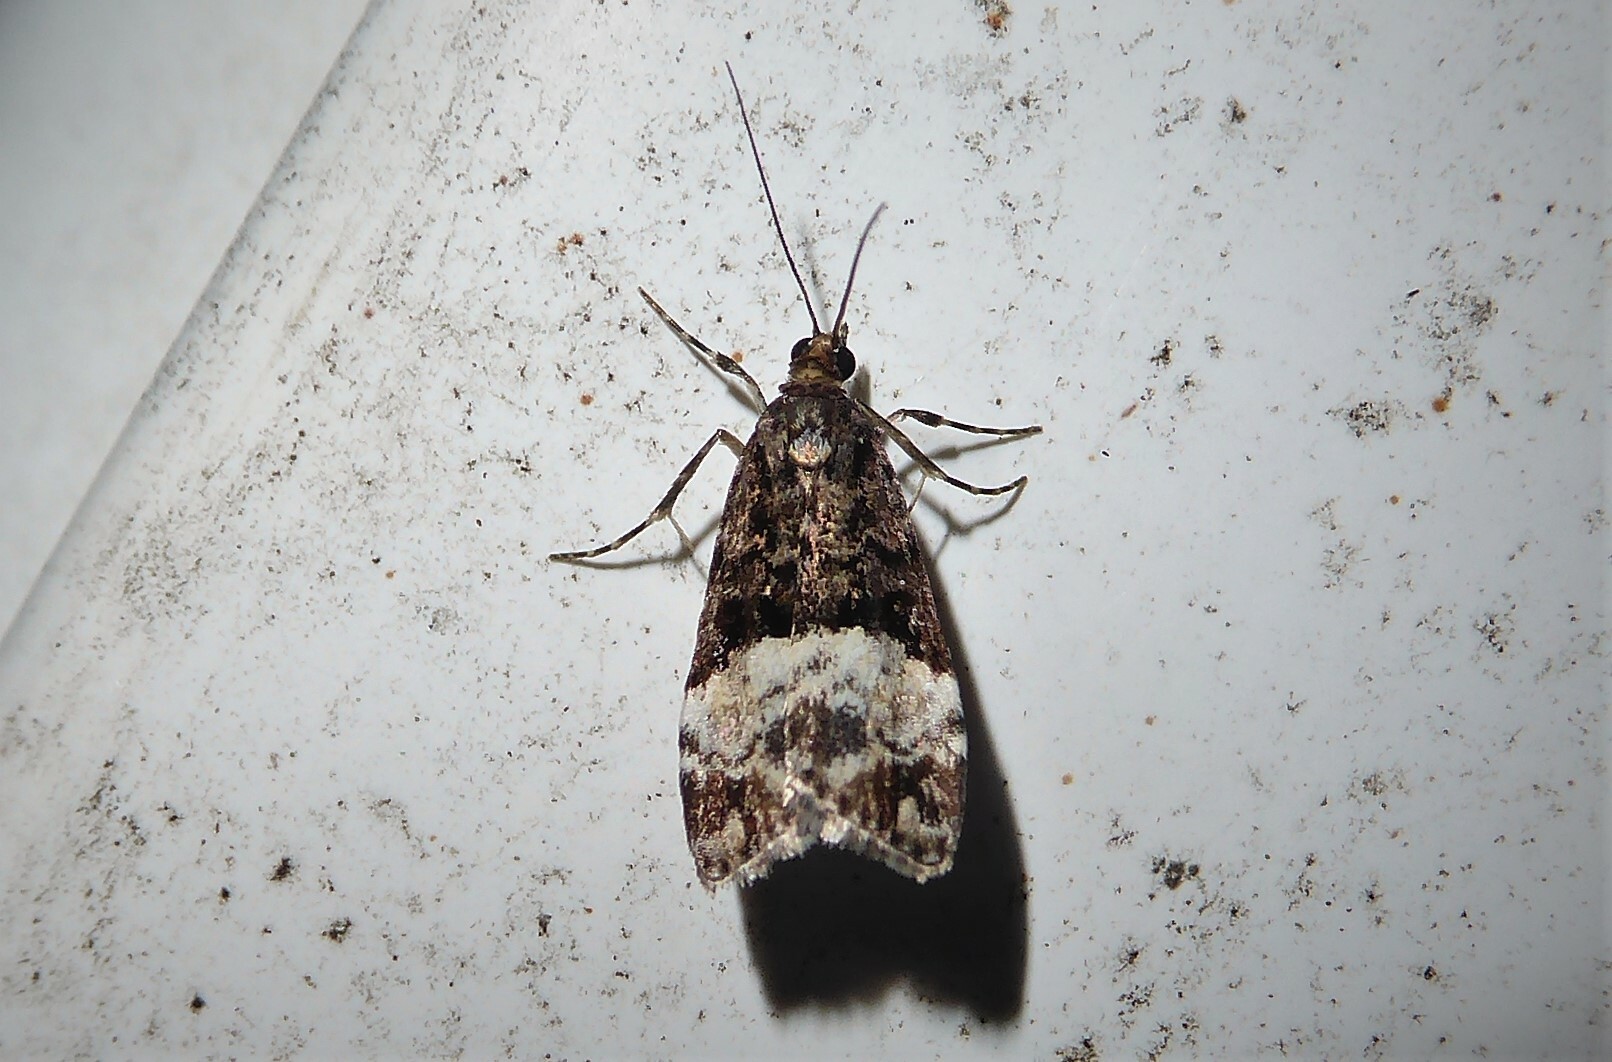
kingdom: Animalia
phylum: Arthropoda
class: Insecta
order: Lepidoptera
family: Crambidae
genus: Scoparia
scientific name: Scoparia minusculalis
